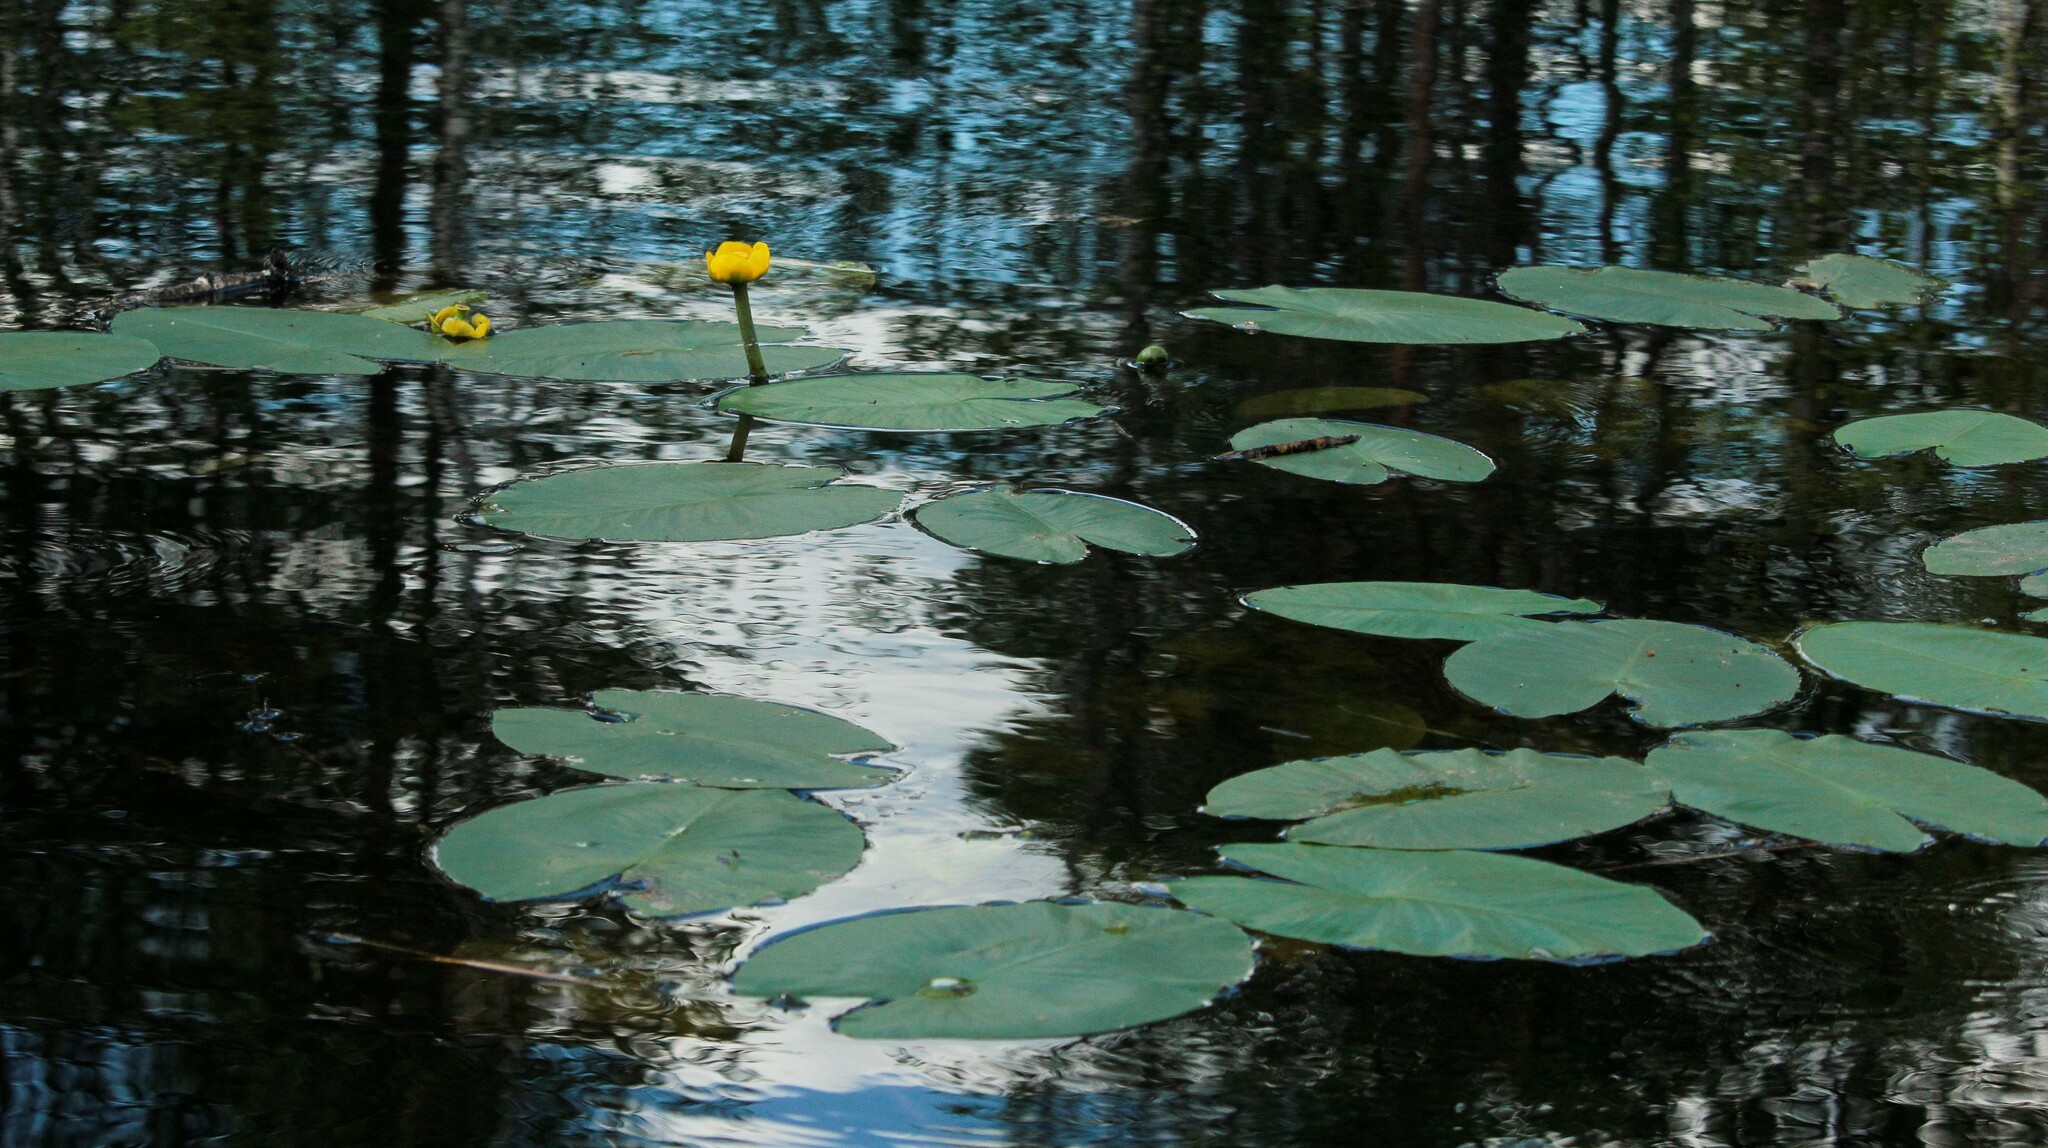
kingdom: Plantae
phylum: Tracheophyta
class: Magnoliopsida
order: Nymphaeales
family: Nymphaeaceae
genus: Nuphar
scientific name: Nuphar pumila
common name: Least water-lily
